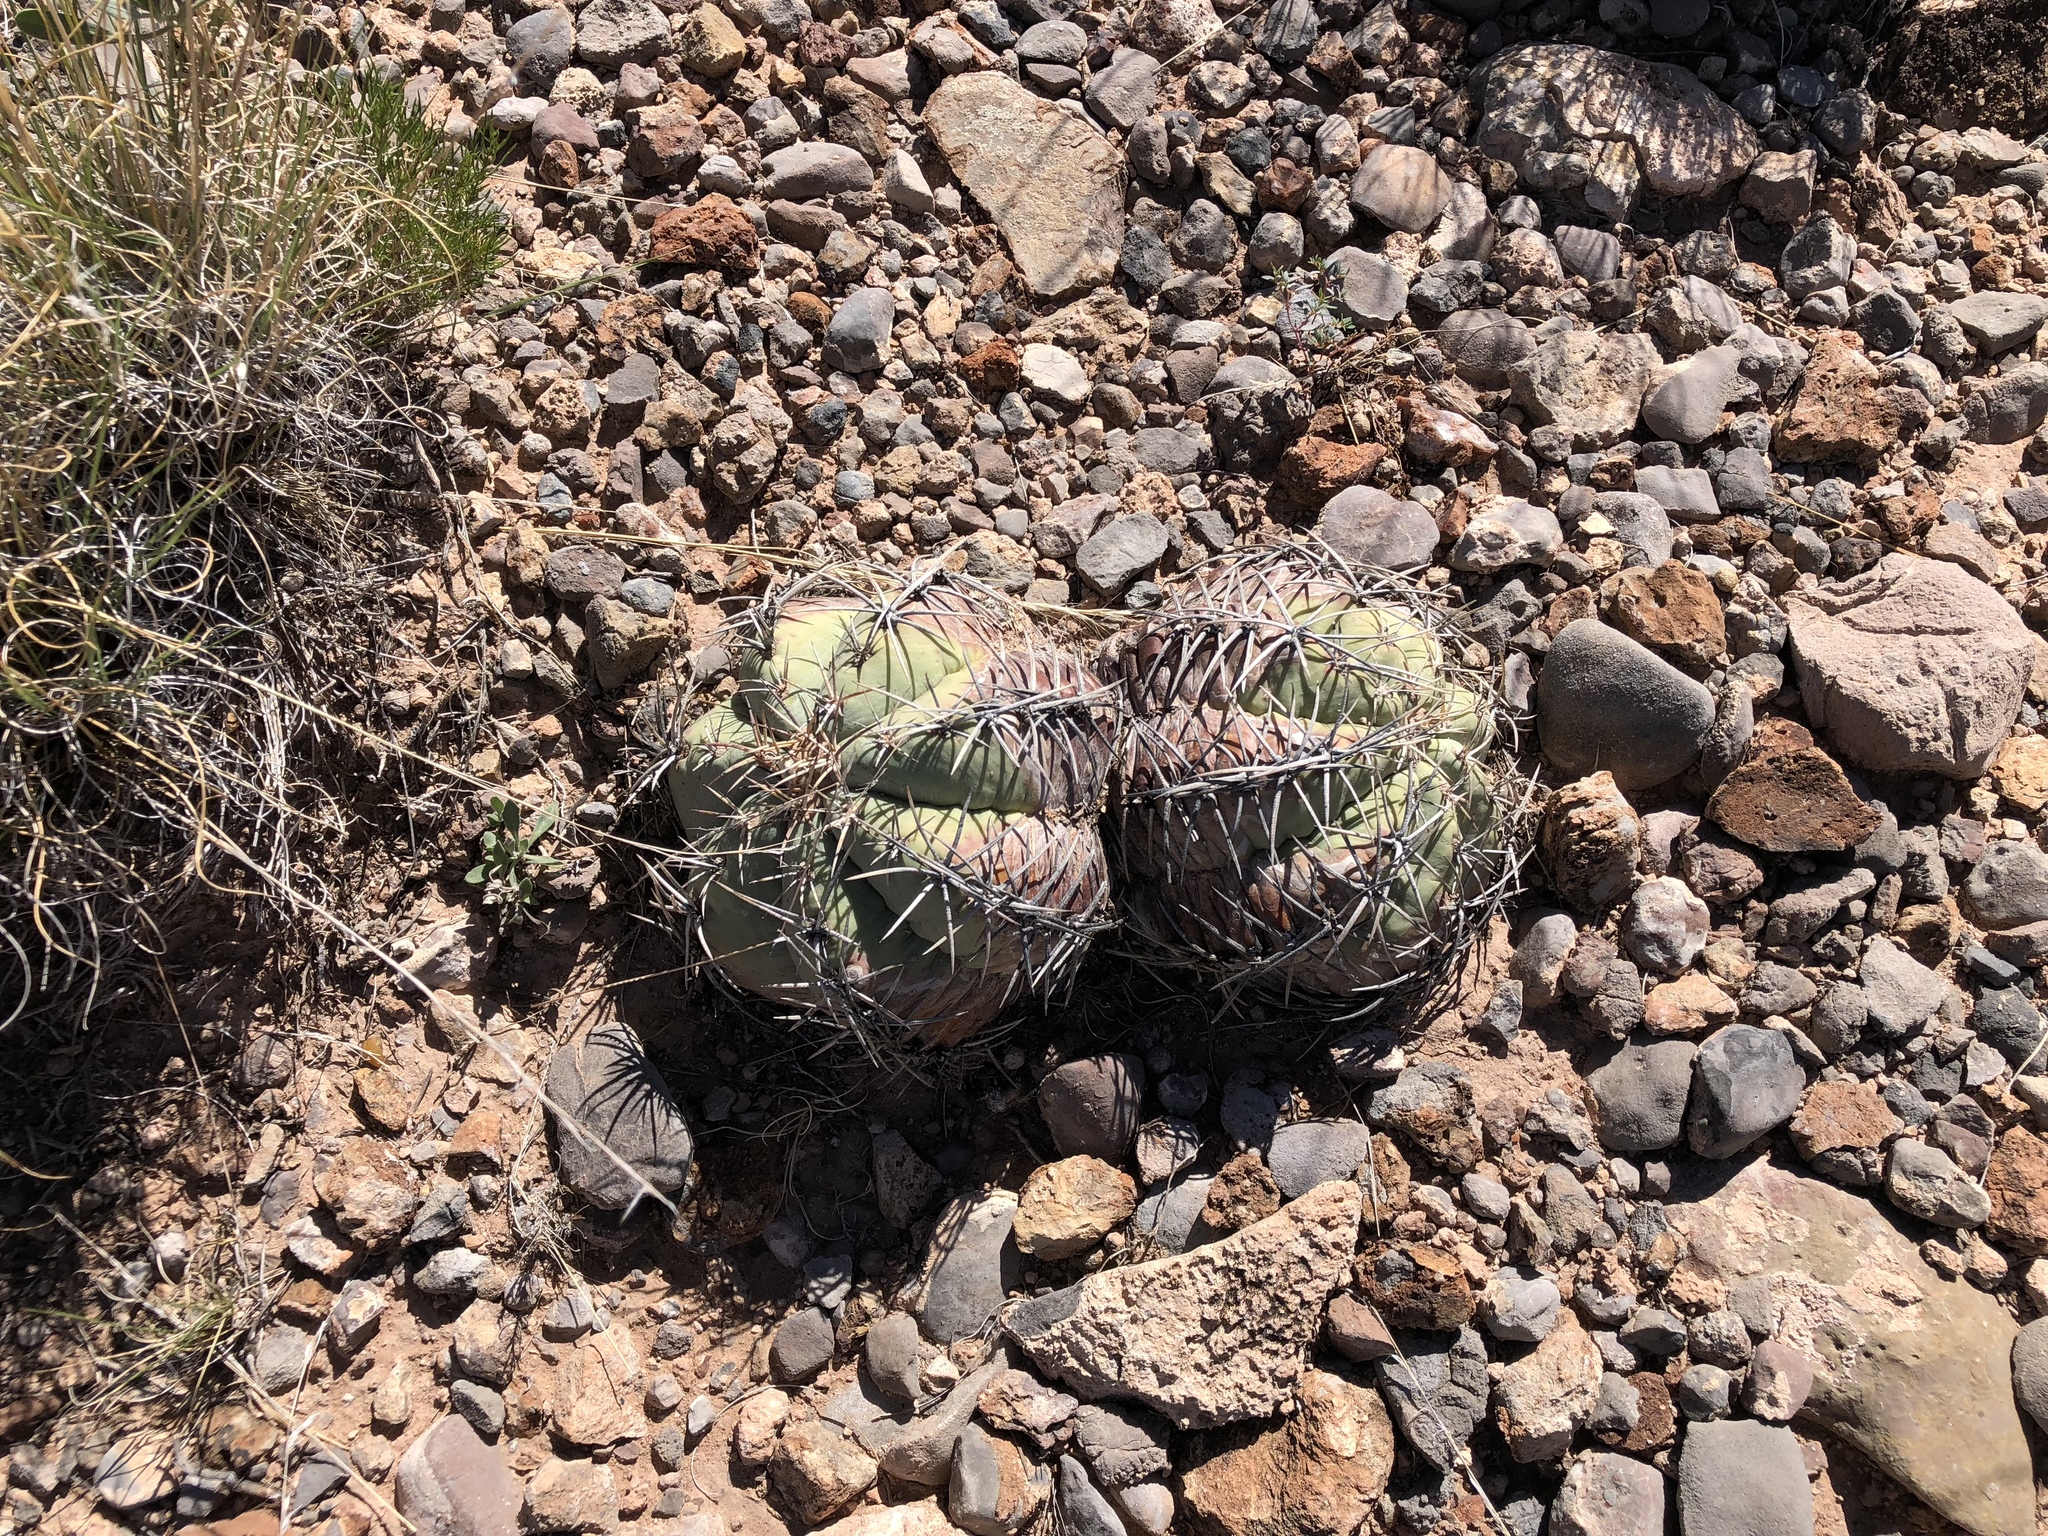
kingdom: Plantae
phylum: Tracheophyta
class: Magnoliopsida
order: Caryophyllales
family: Cactaceae
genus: Echinocactus
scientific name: Echinocactus horizonthalonius
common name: Devilshead
